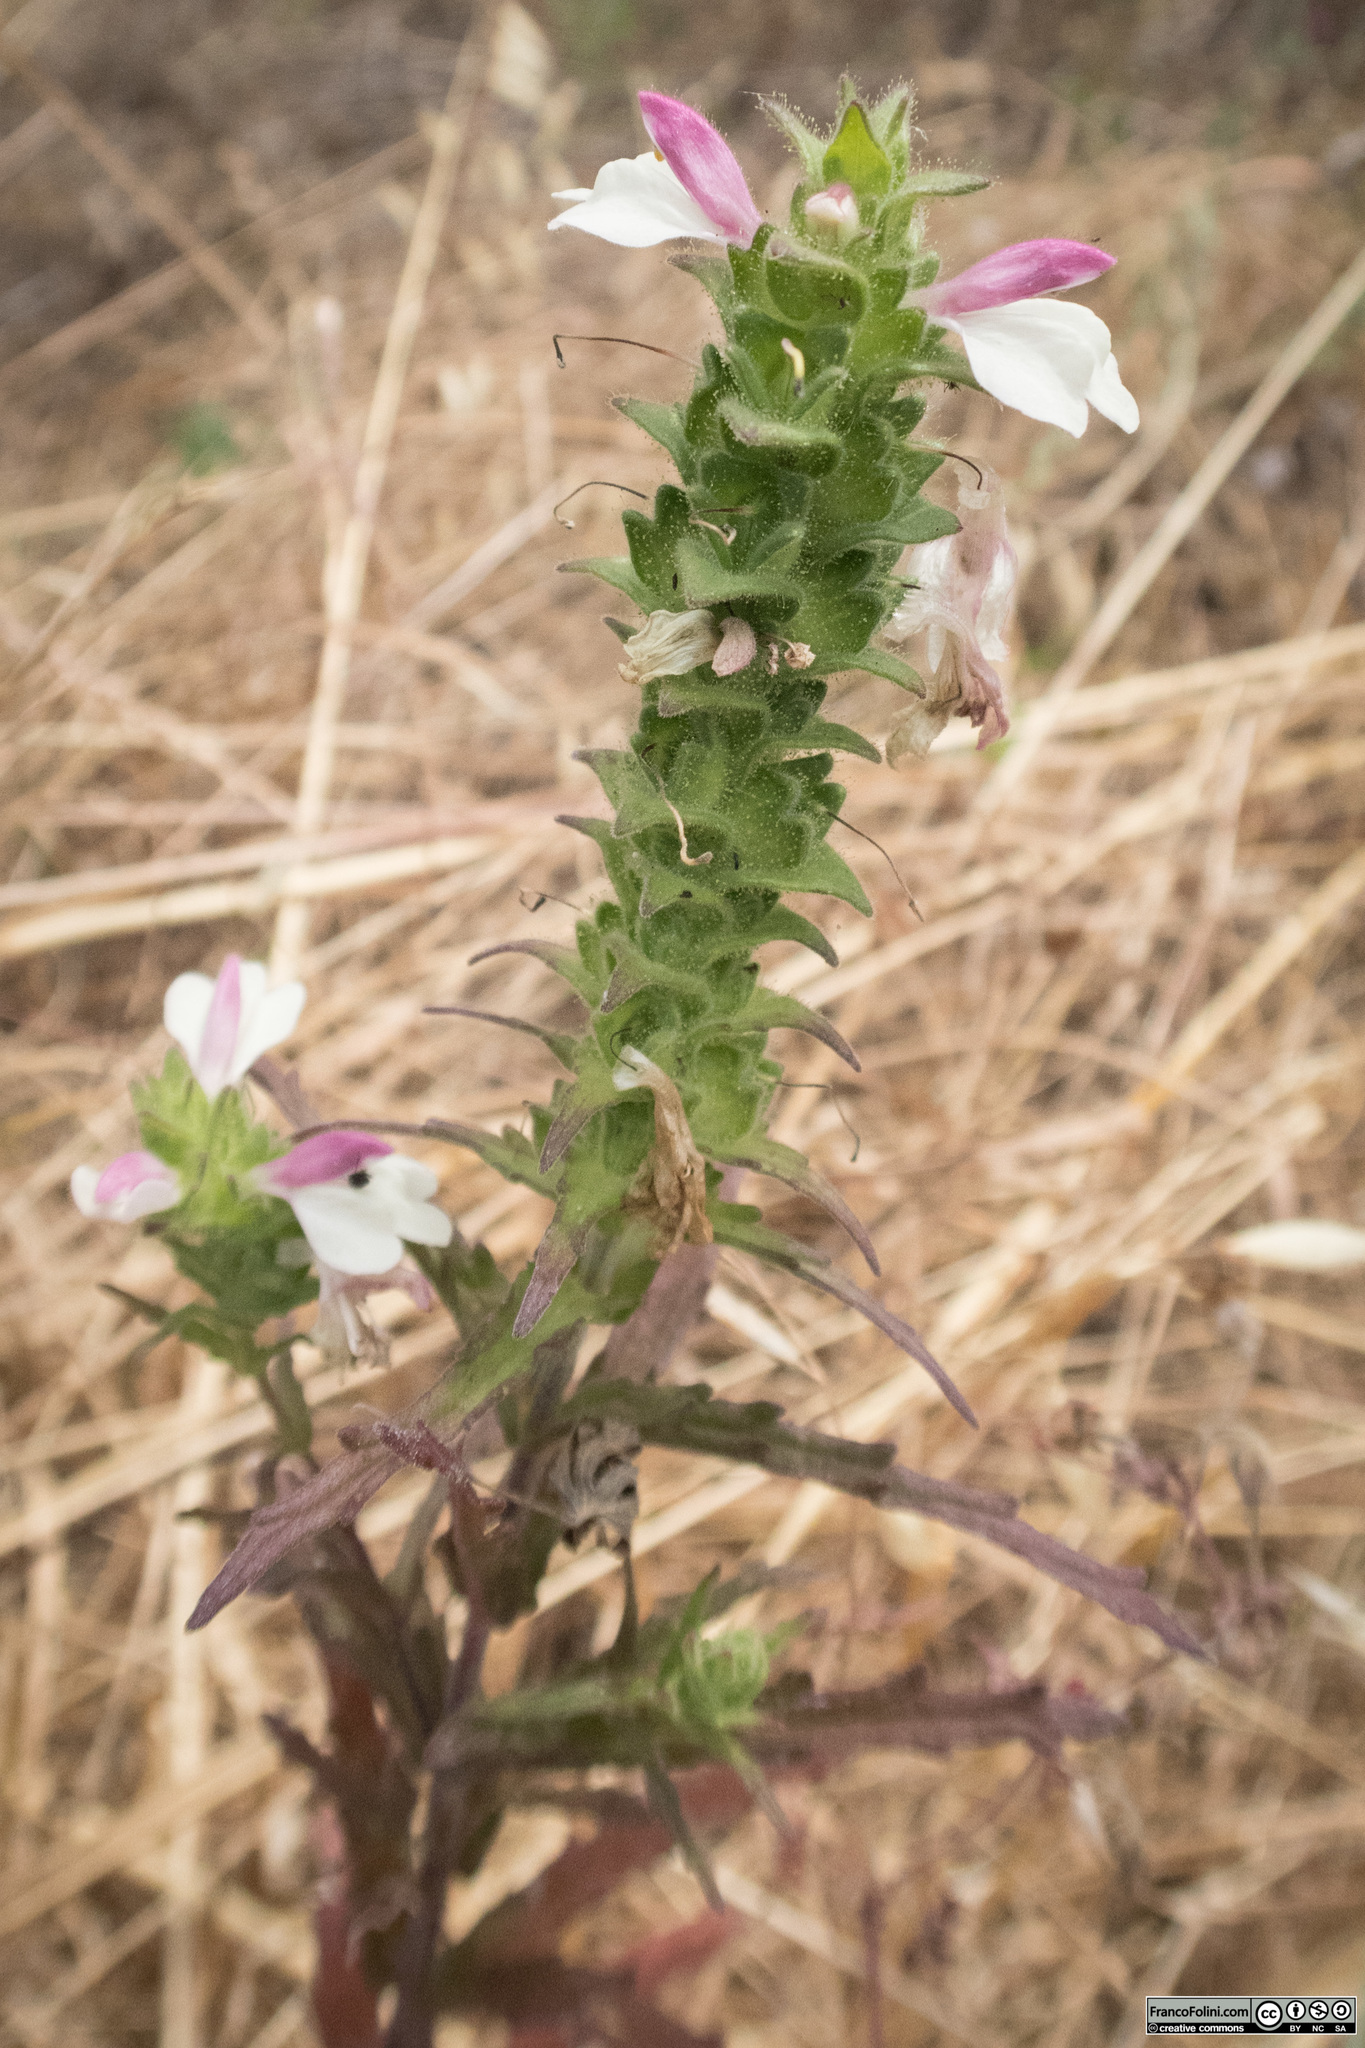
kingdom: Plantae
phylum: Tracheophyta
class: Magnoliopsida
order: Lamiales
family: Orobanchaceae
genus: Bellardia
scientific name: Bellardia trixago
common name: Mediterranean lineseed
